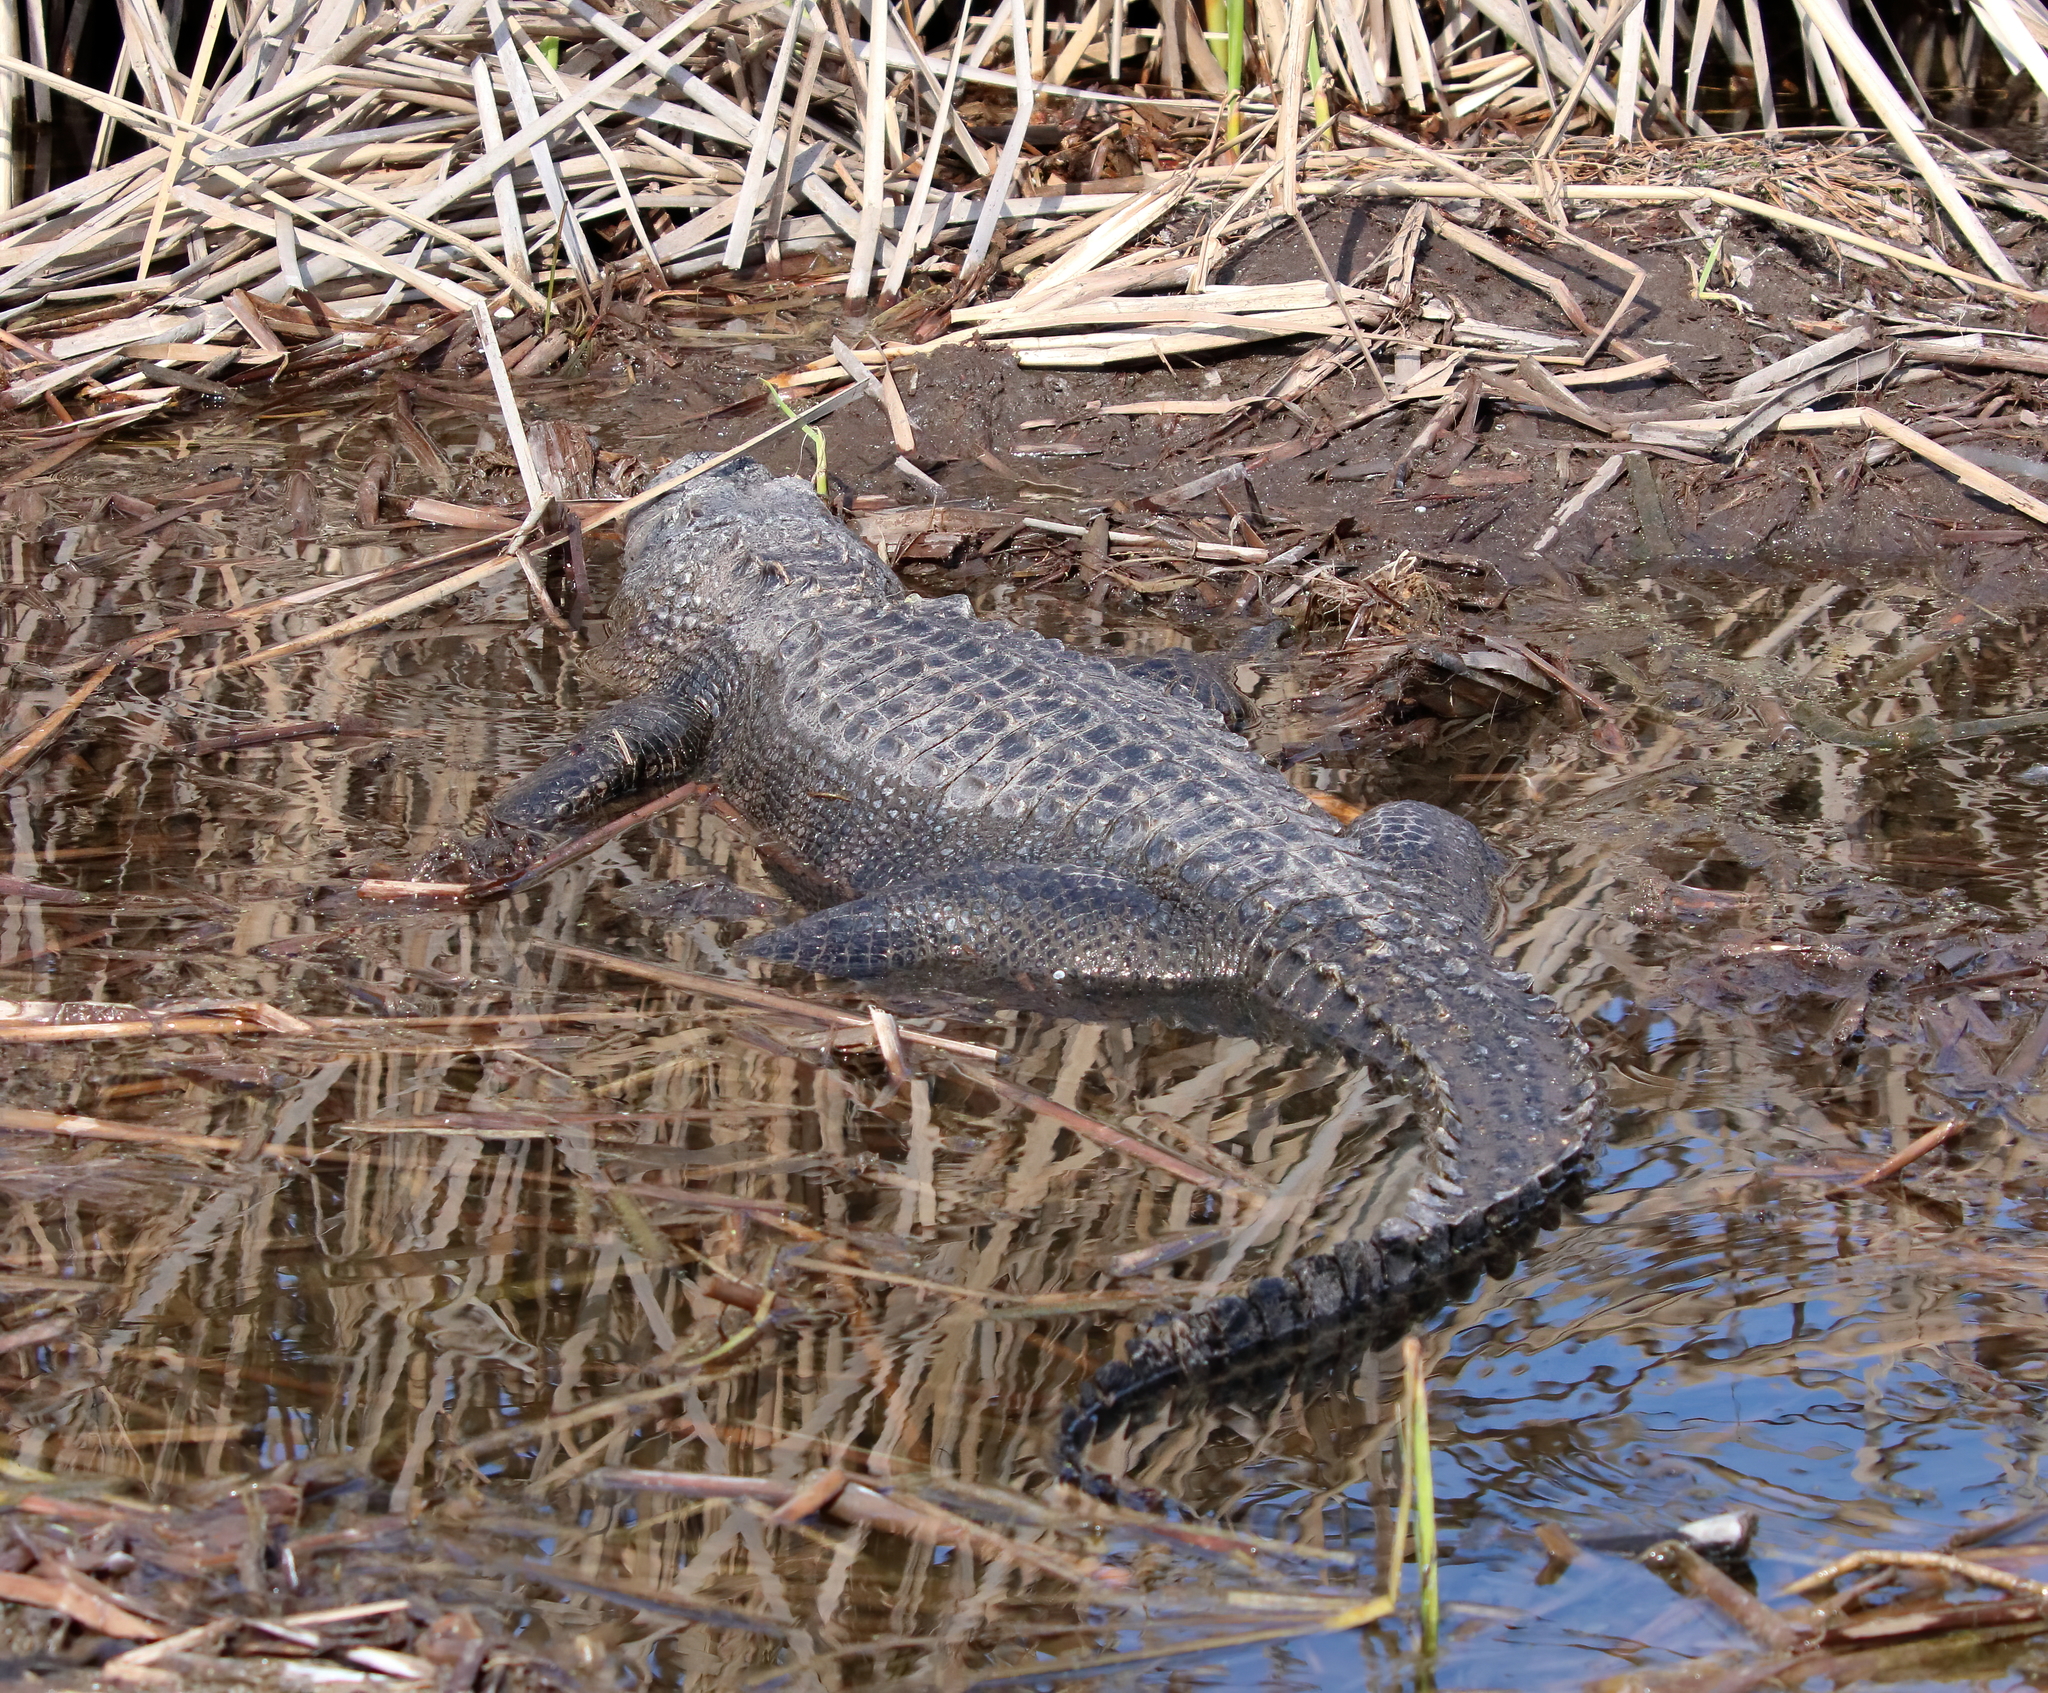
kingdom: Animalia
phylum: Chordata
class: Crocodylia
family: Alligatoridae
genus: Alligator
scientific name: Alligator mississippiensis
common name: American alligator
